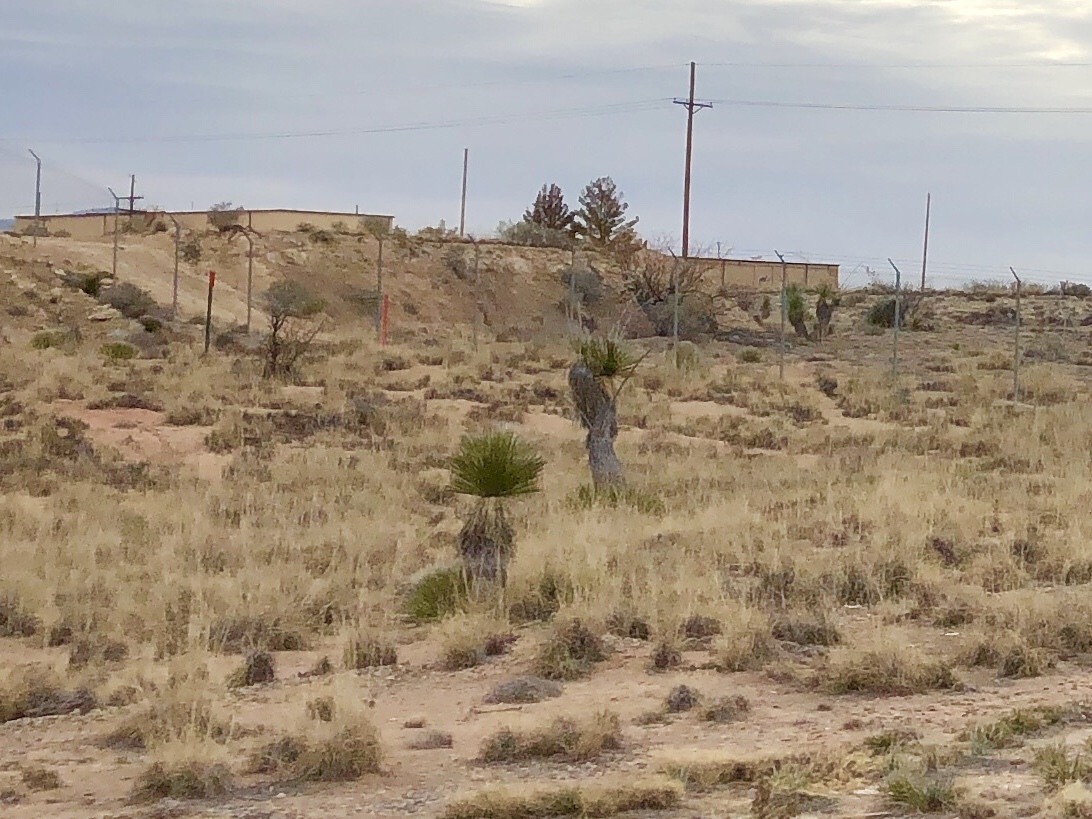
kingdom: Plantae
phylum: Tracheophyta
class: Liliopsida
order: Asparagales
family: Asparagaceae
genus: Yucca
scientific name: Yucca elata
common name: Palmella
